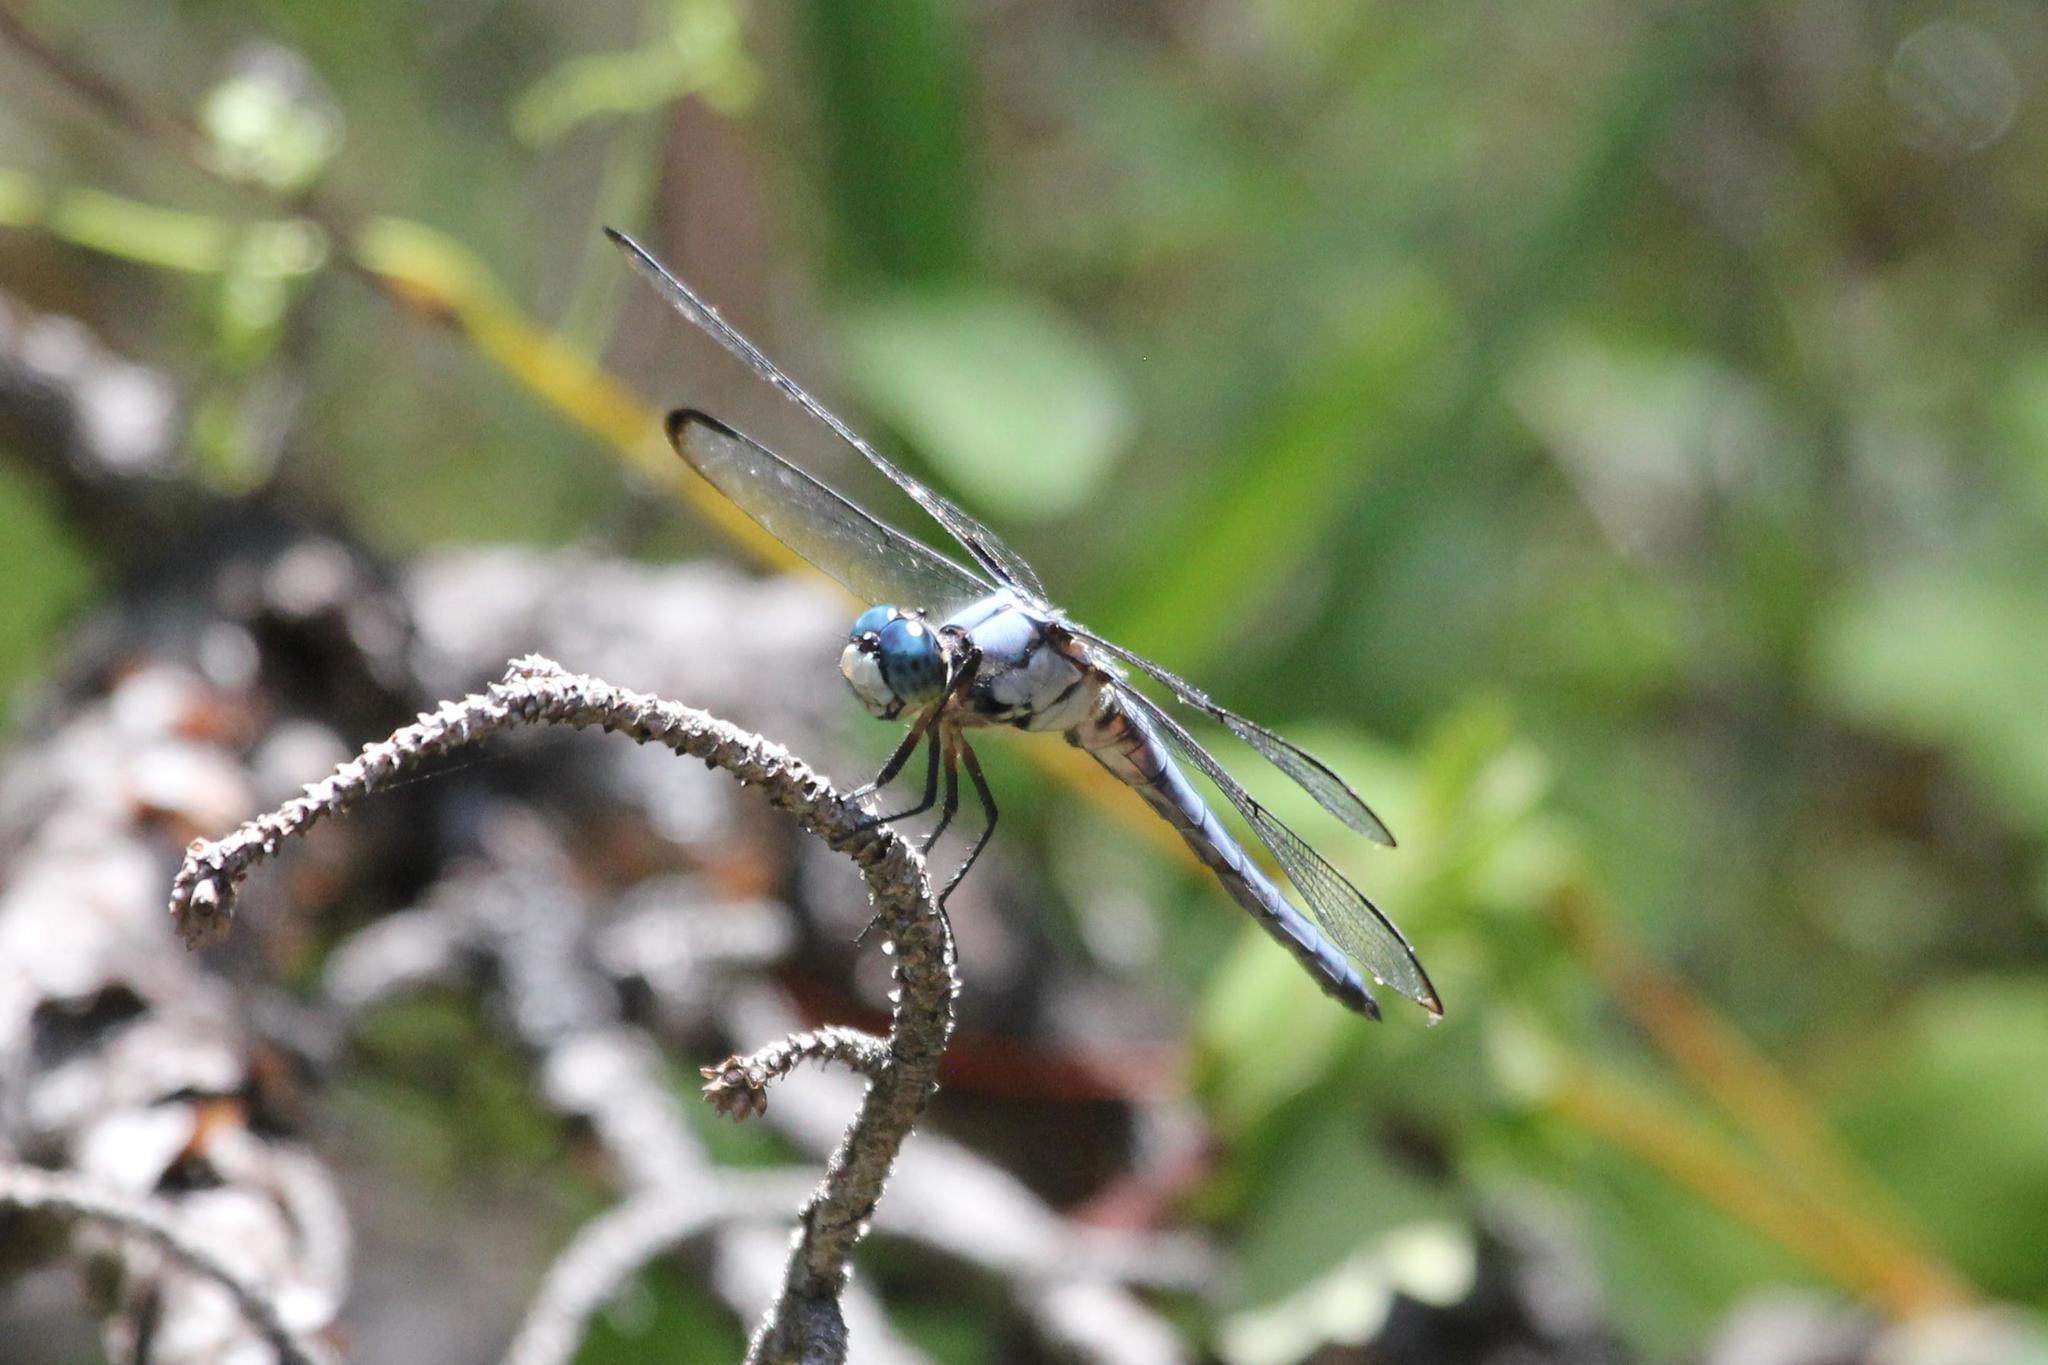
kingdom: Animalia
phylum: Arthropoda
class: Insecta
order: Odonata
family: Libellulidae
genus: Libellula
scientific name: Libellula vibrans
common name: Great blue skimmer
